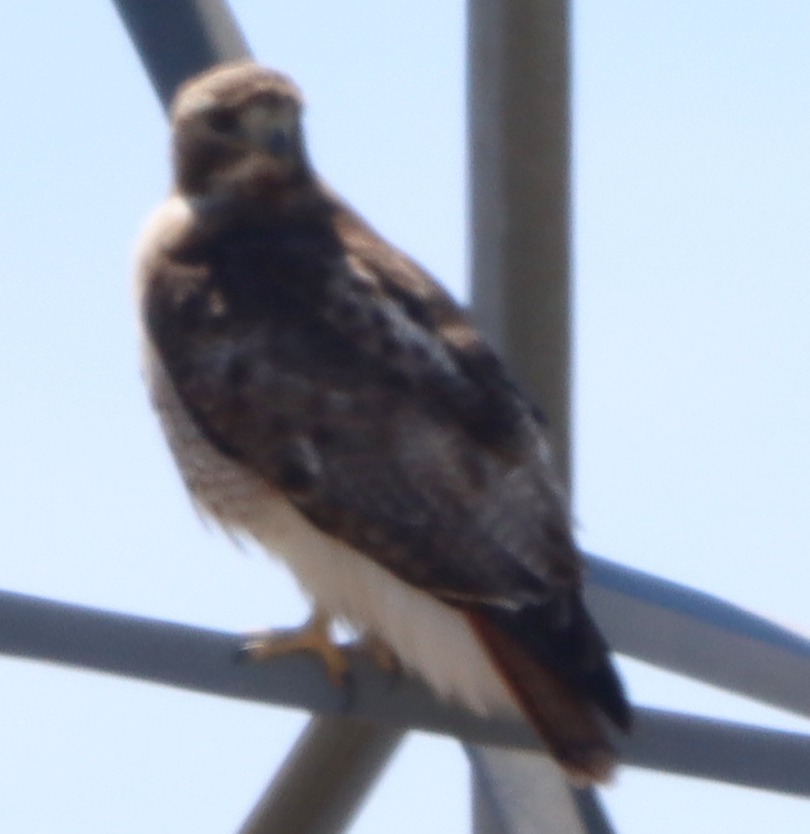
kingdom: Animalia
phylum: Chordata
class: Aves
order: Accipitriformes
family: Accipitridae
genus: Buteo
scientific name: Buteo jamaicensis
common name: Red-tailed hawk
